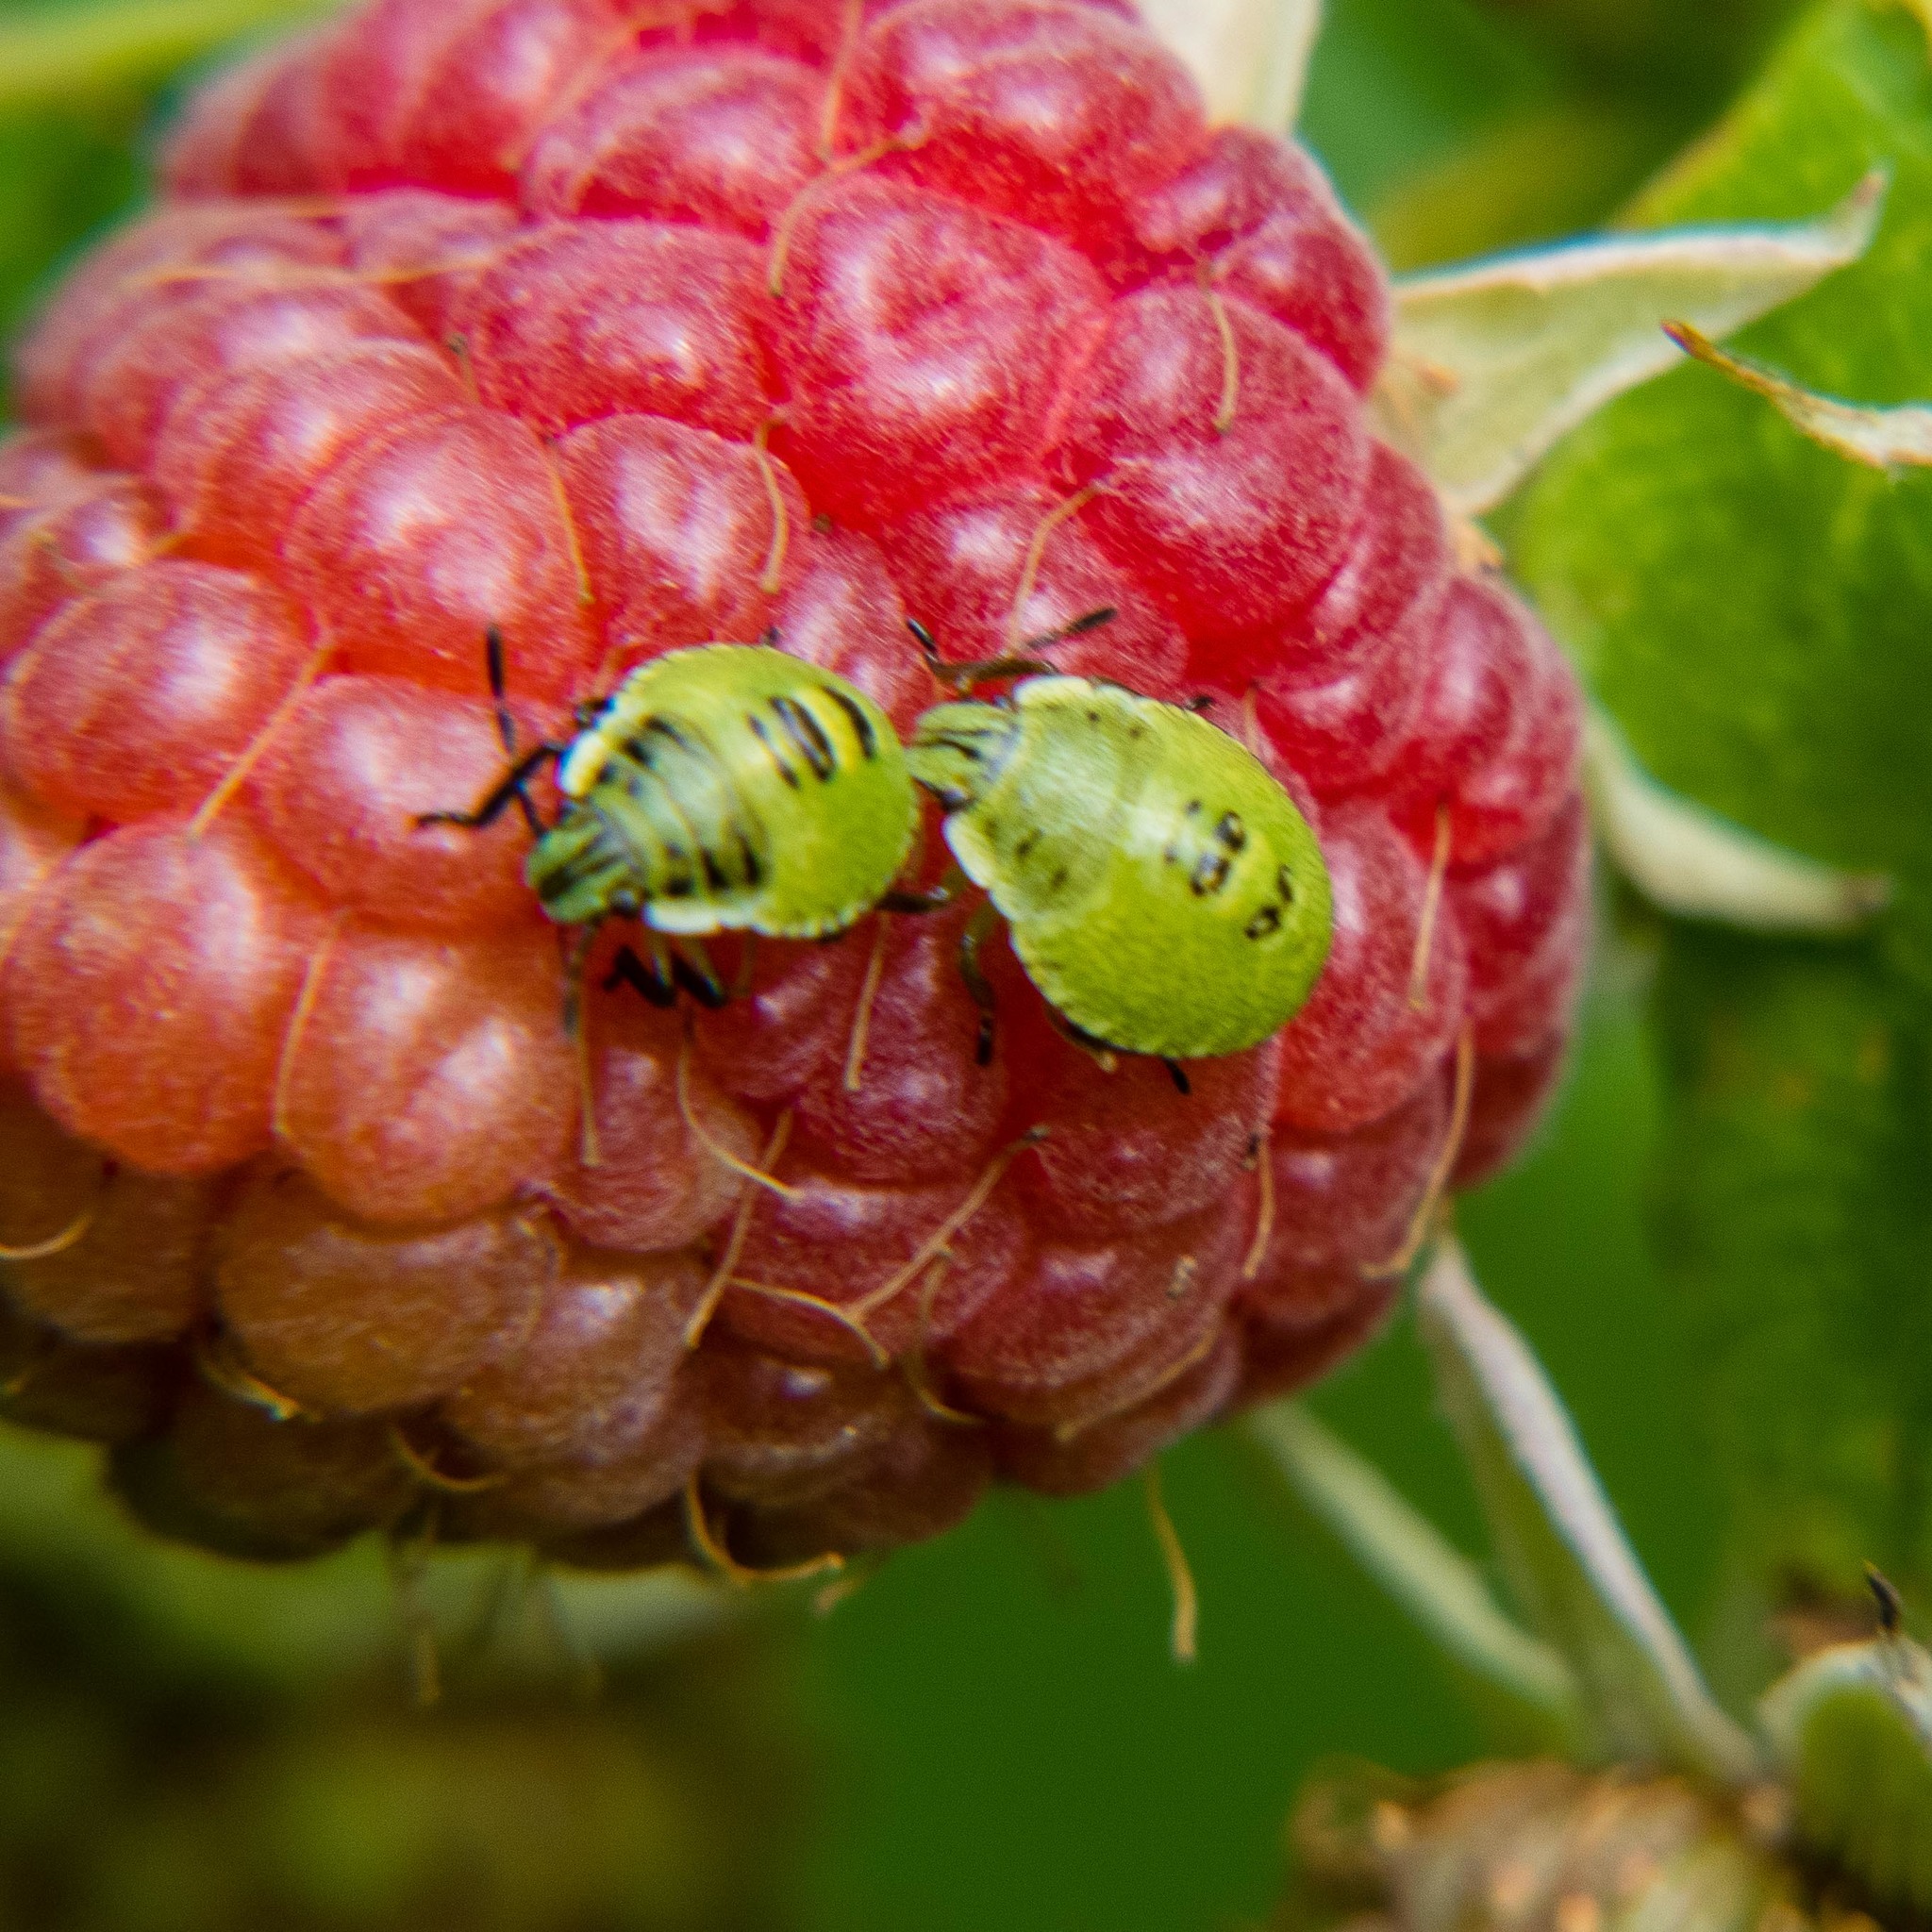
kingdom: Animalia
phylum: Arthropoda
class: Insecta
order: Hemiptera
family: Pentatomidae
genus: Palomena
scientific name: Palomena prasina
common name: Green shieldbug
